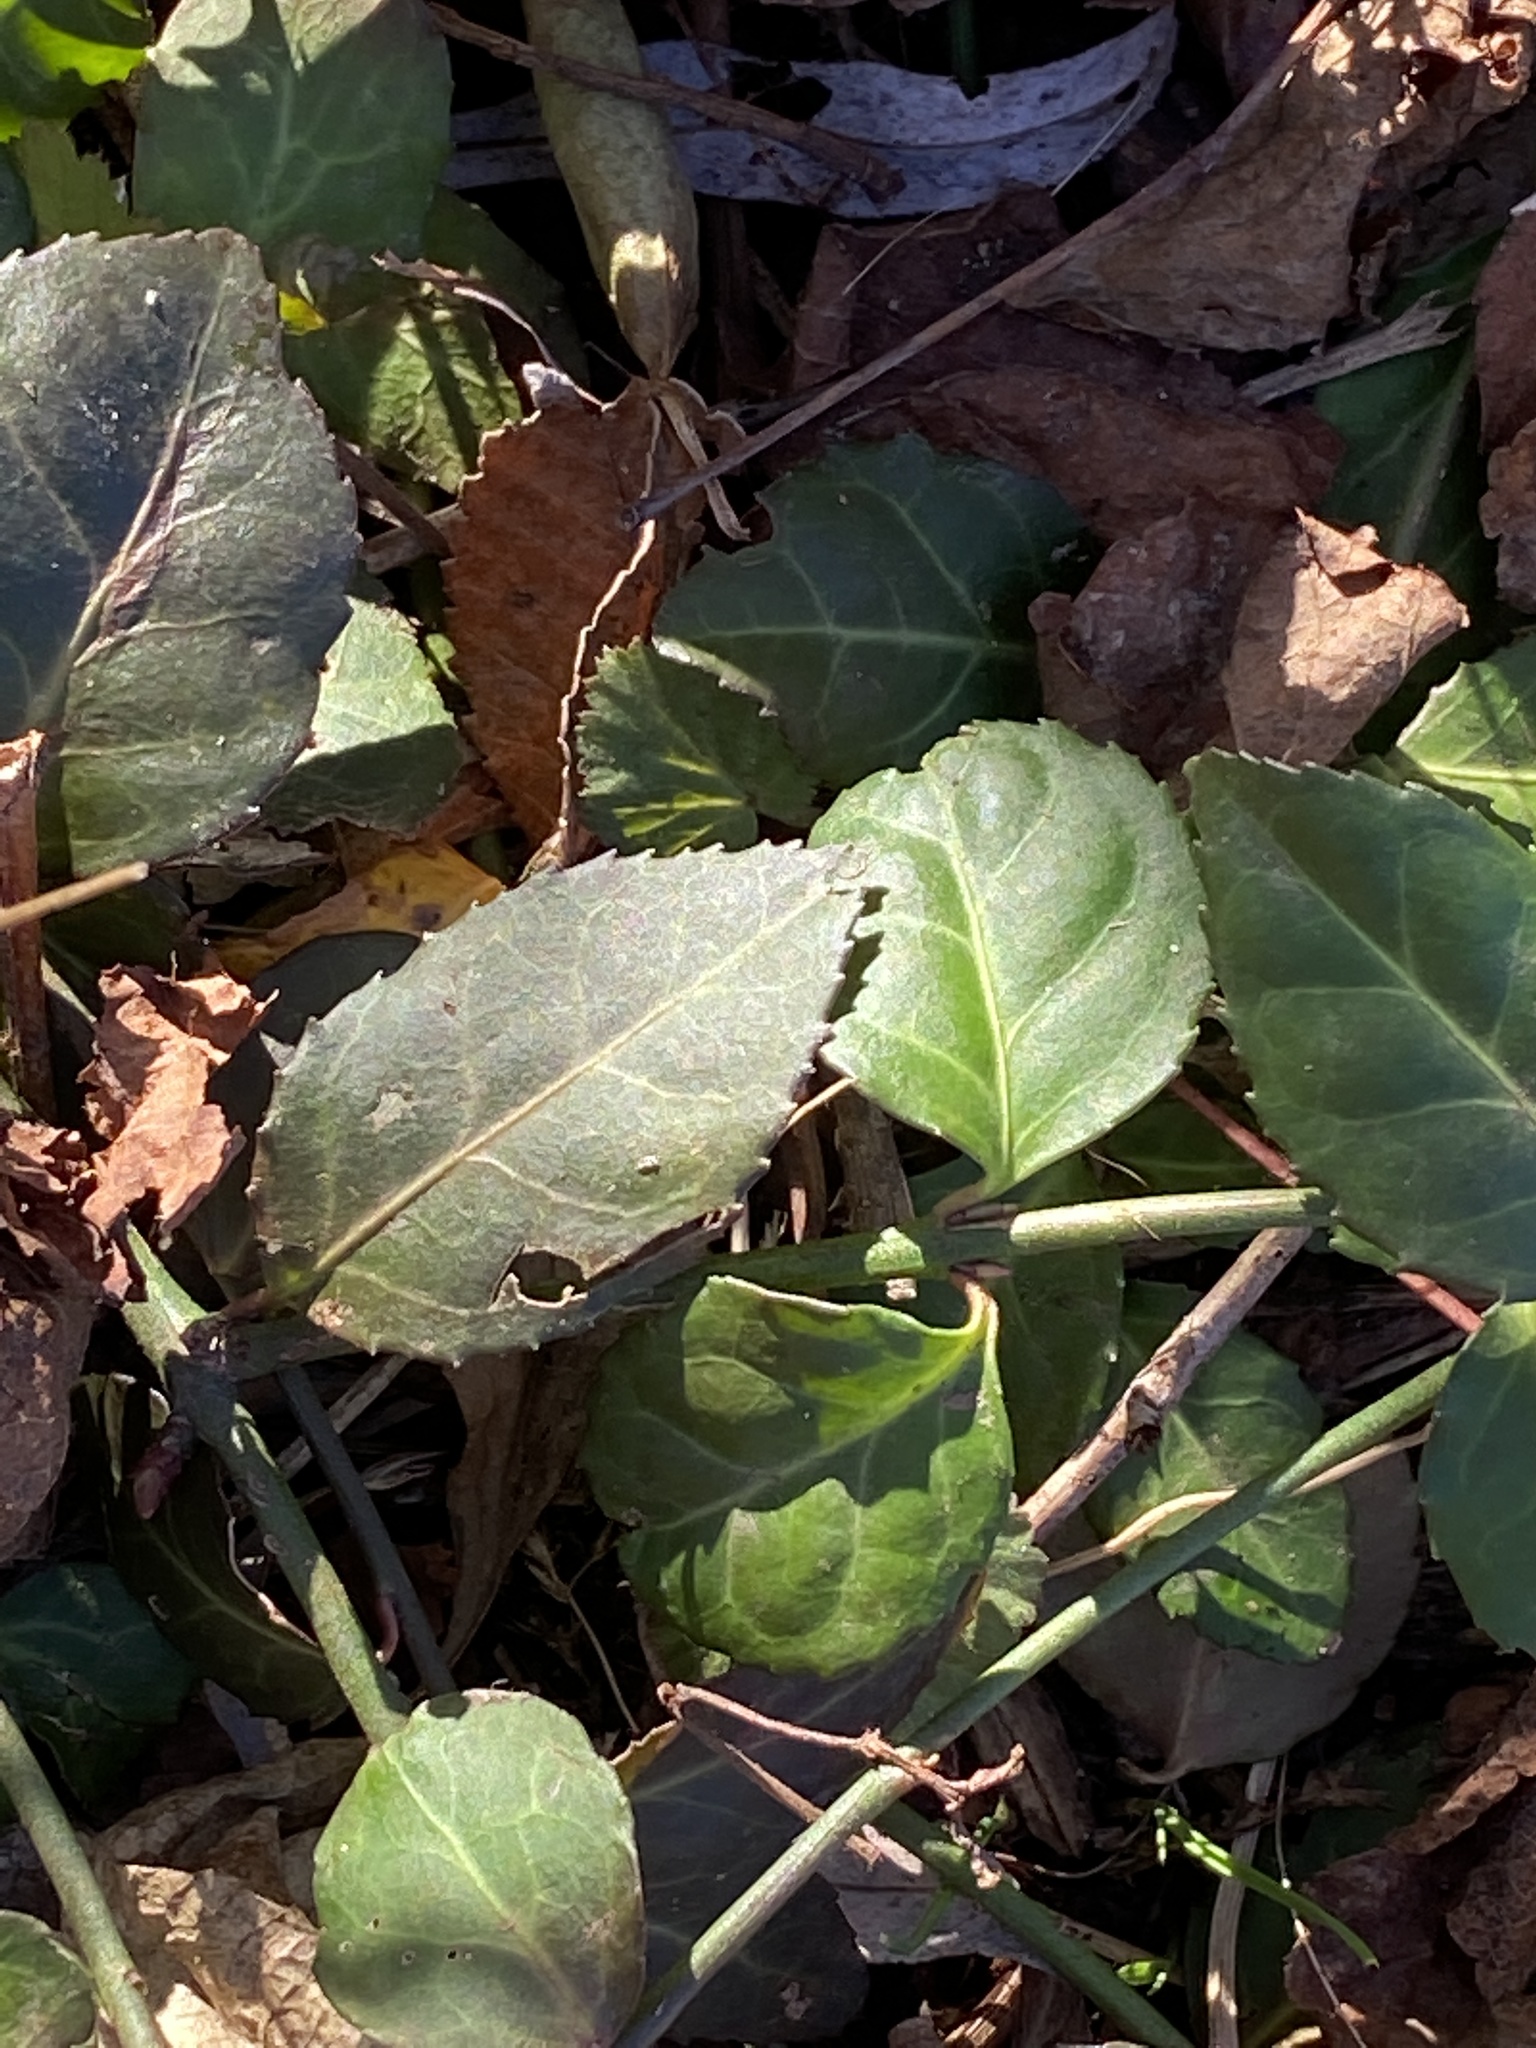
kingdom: Plantae
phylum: Tracheophyta
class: Magnoliopsida
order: Celastrales
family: Celastraceae
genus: Euonymus
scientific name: Euonymus fortunei
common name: Climbing euonymus
